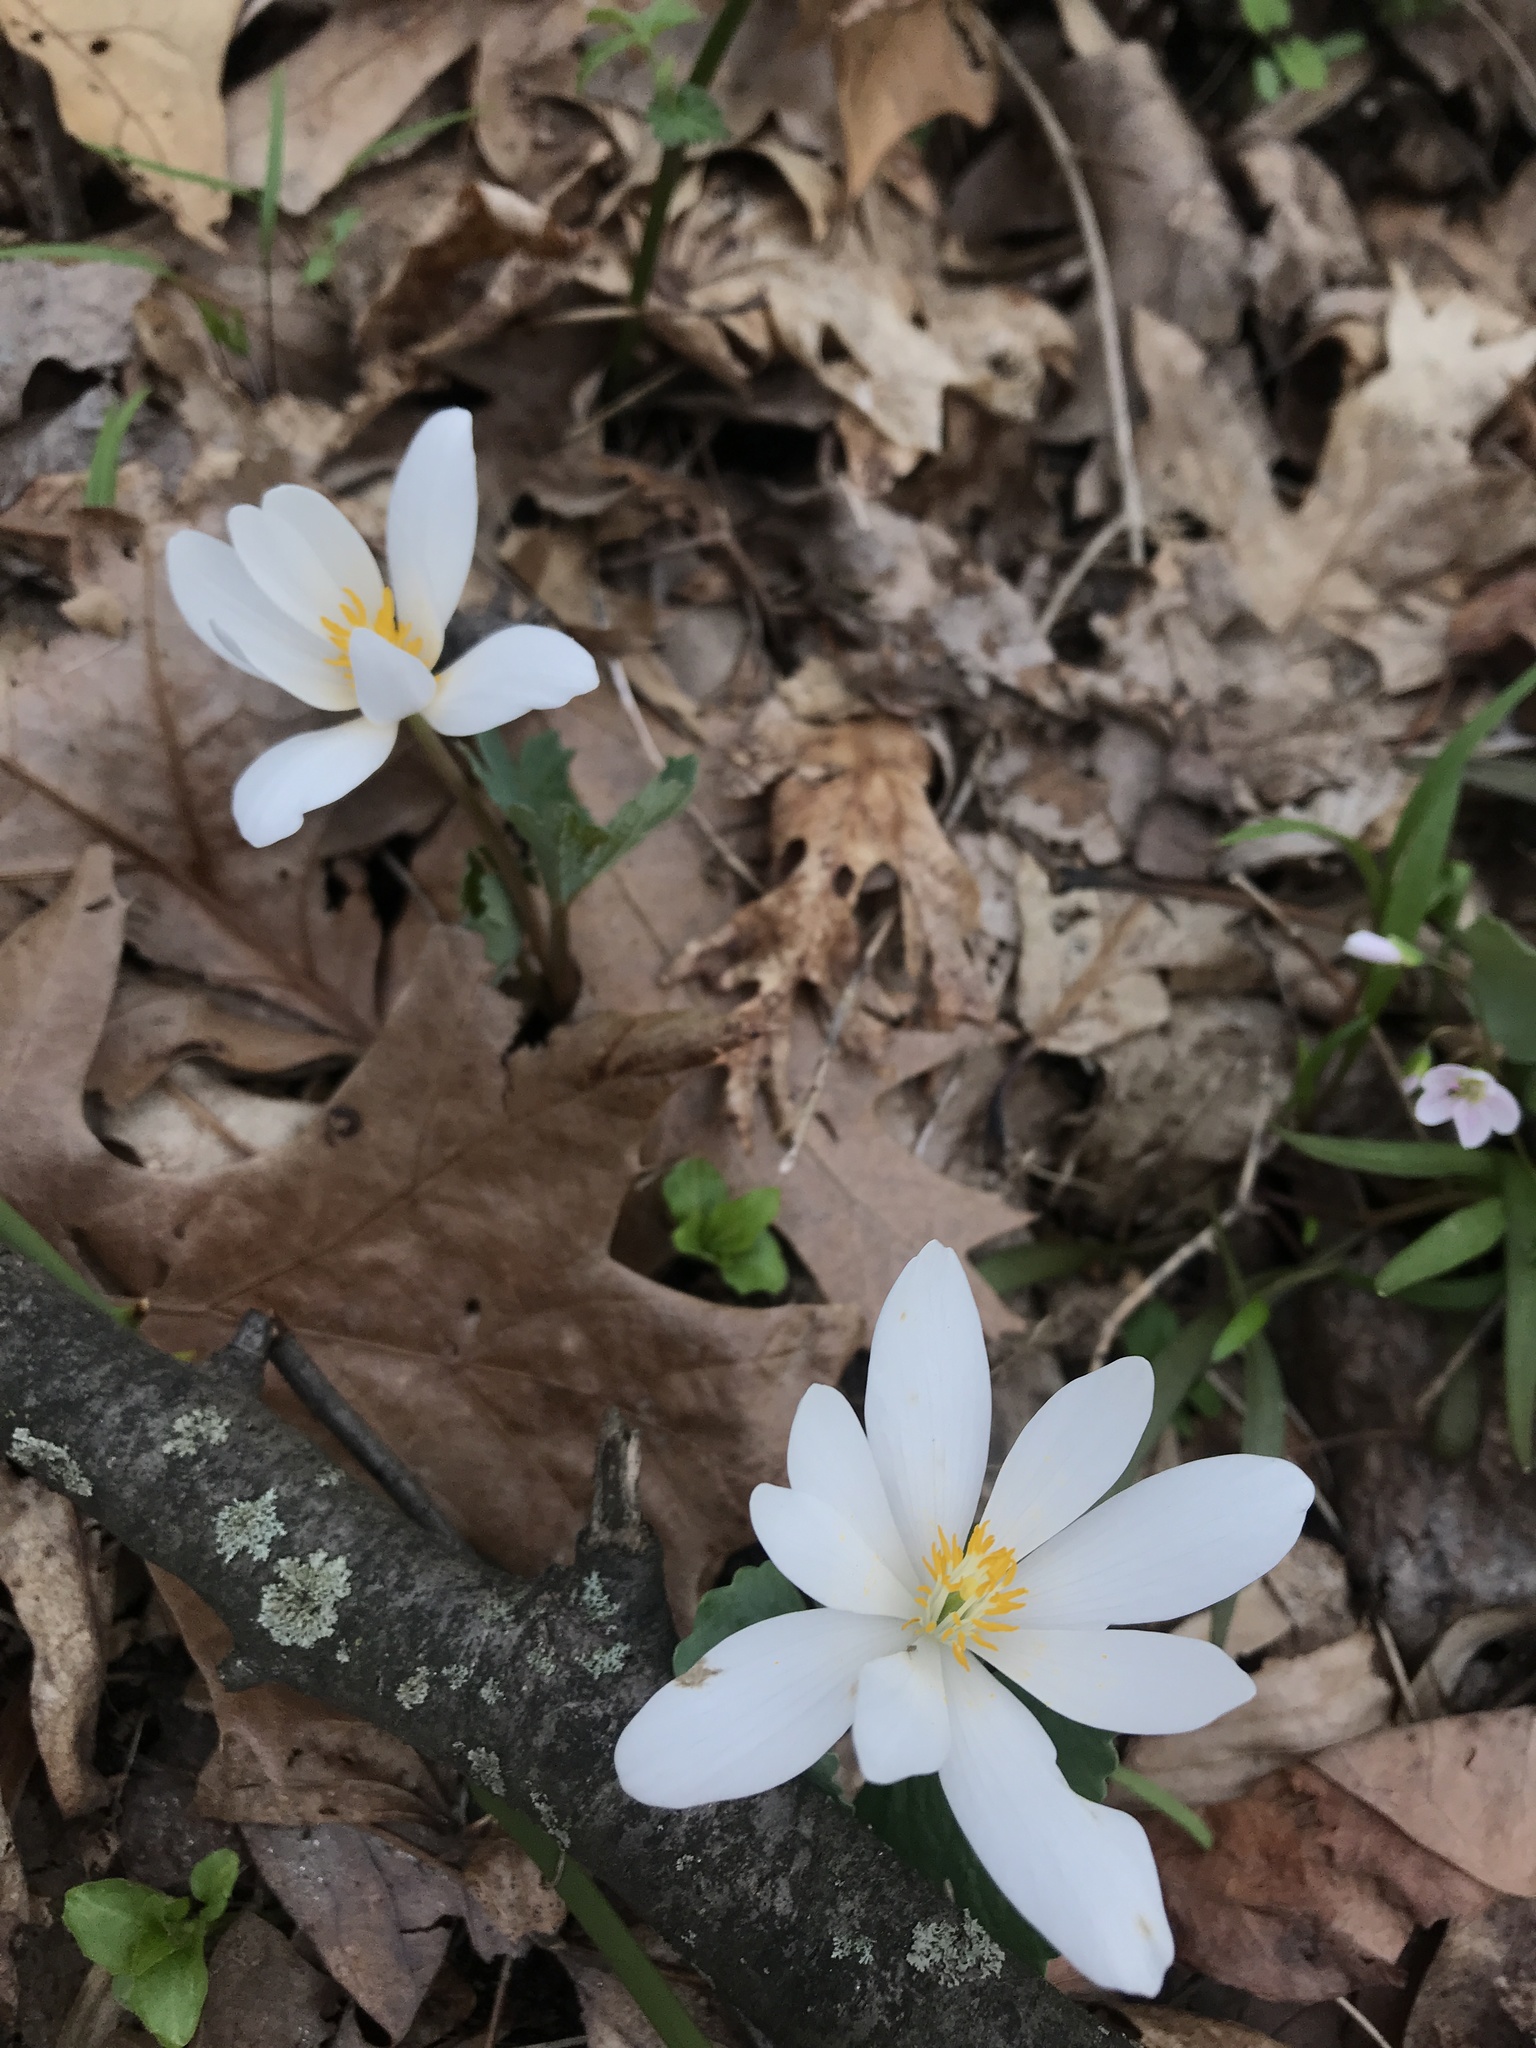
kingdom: Plantae
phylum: Tracheophyta
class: Magnoliopsida
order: Ranunculales
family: Papaveraceae
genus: Sanguinaria
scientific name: Sanguinaria canadensis
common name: Bloodroot
